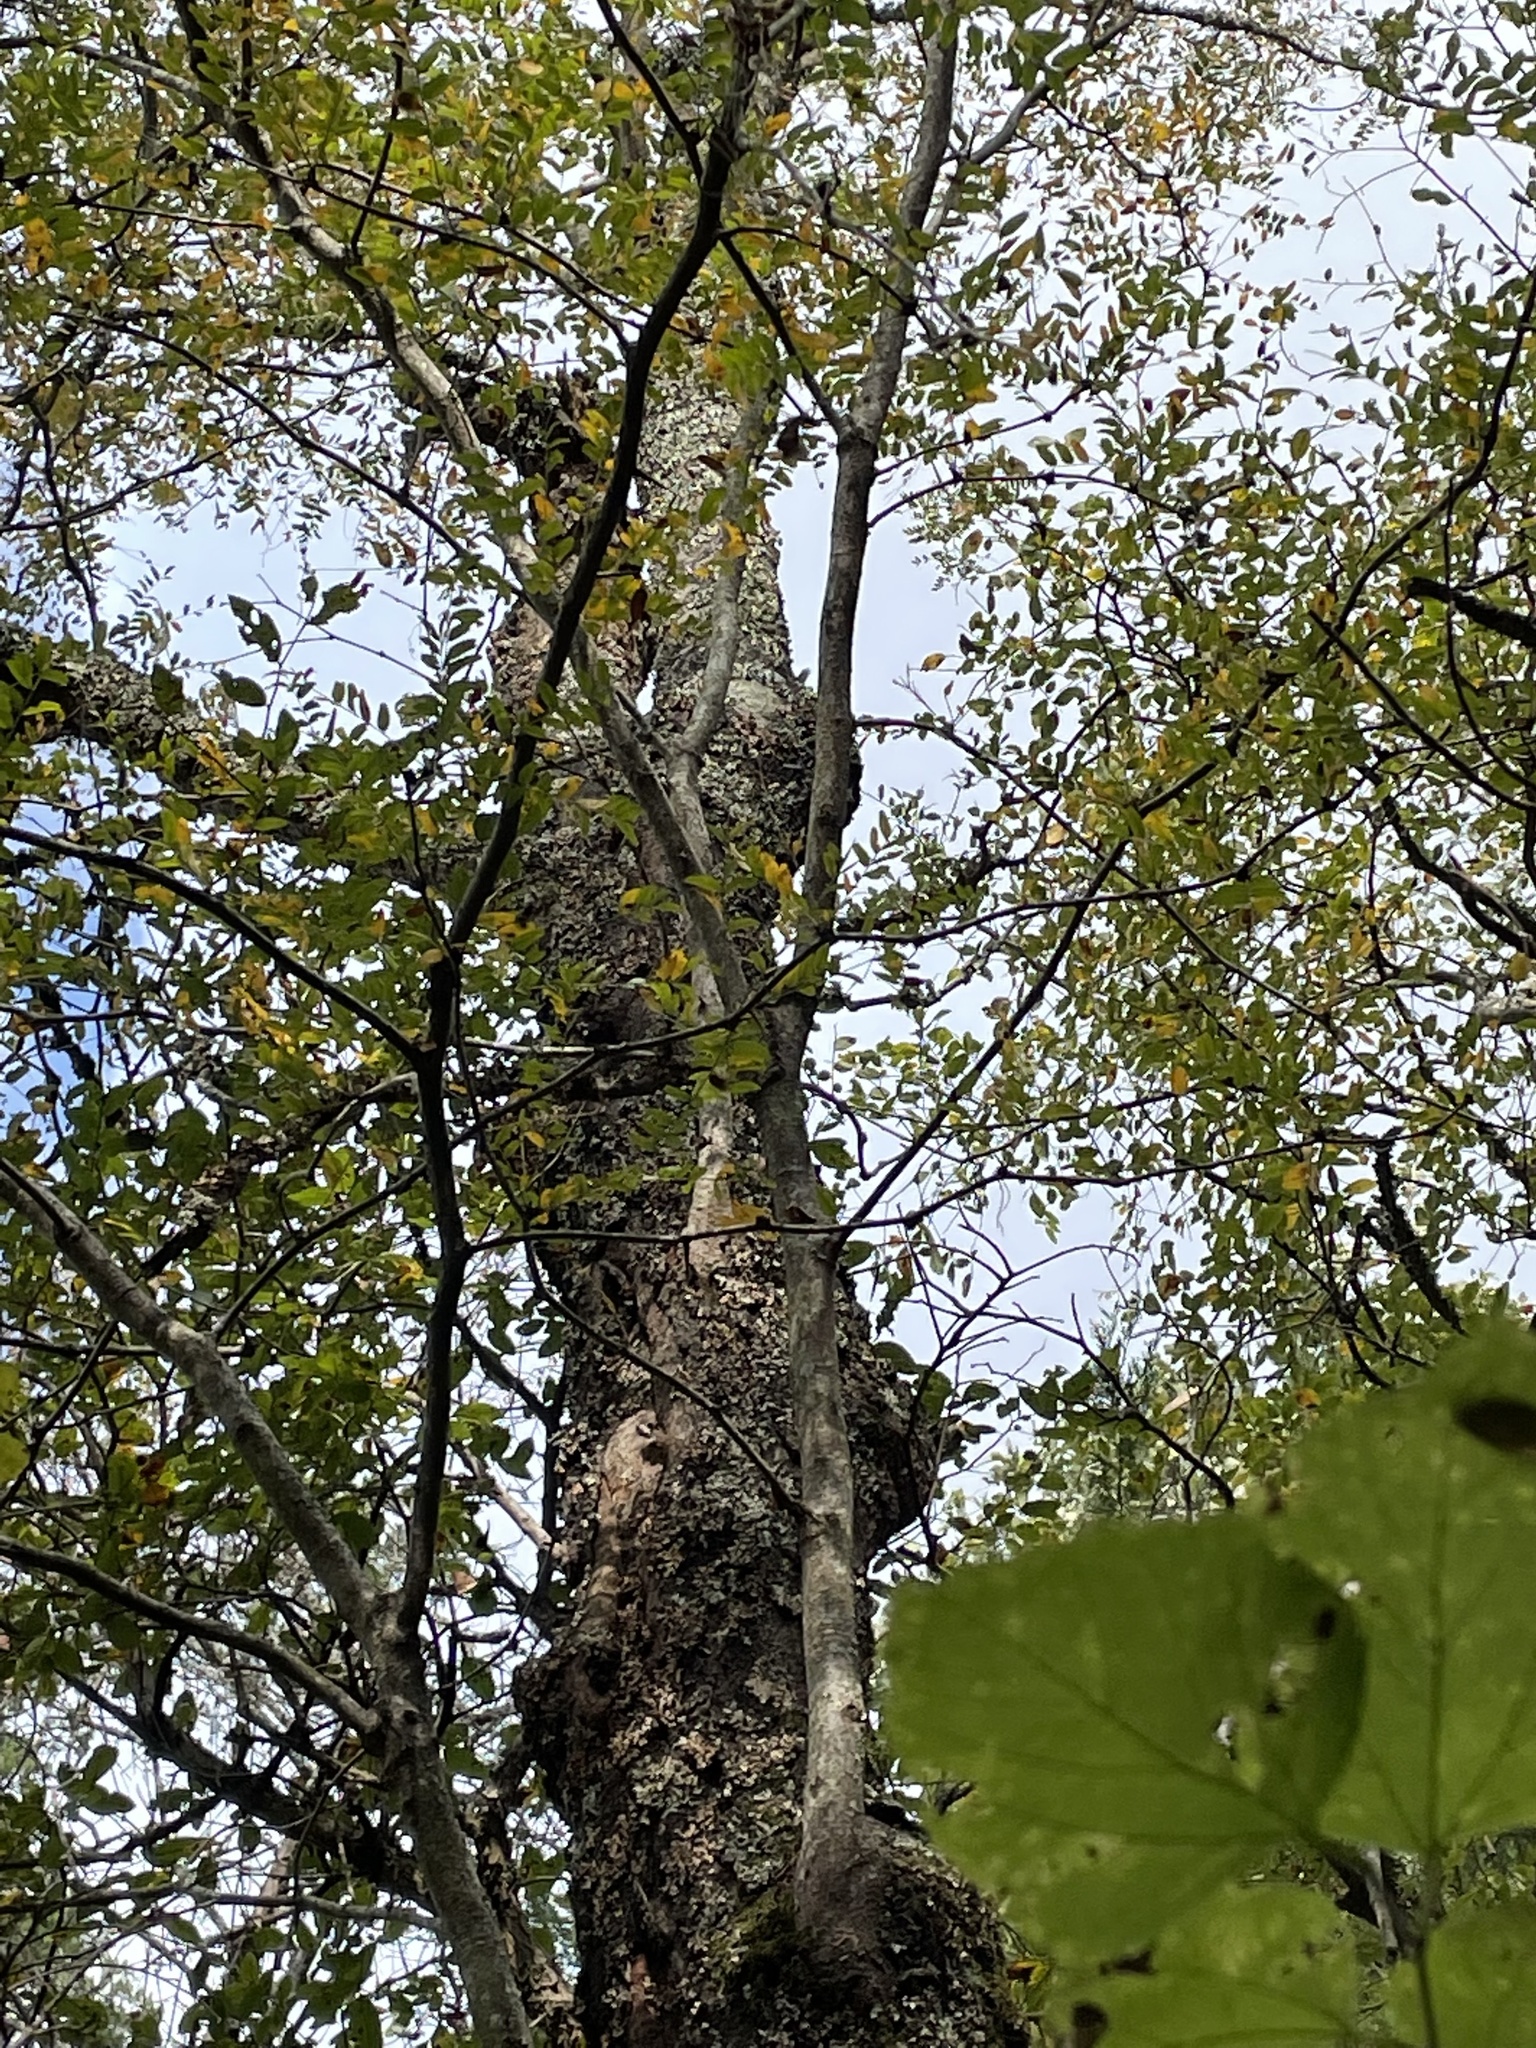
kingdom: Plantae
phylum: Tracheophyta
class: Magnoliopsida
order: Fabales
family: Fabaceae
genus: Gleditsia
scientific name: Gleditsia triacanthos
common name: Common honeylocust
